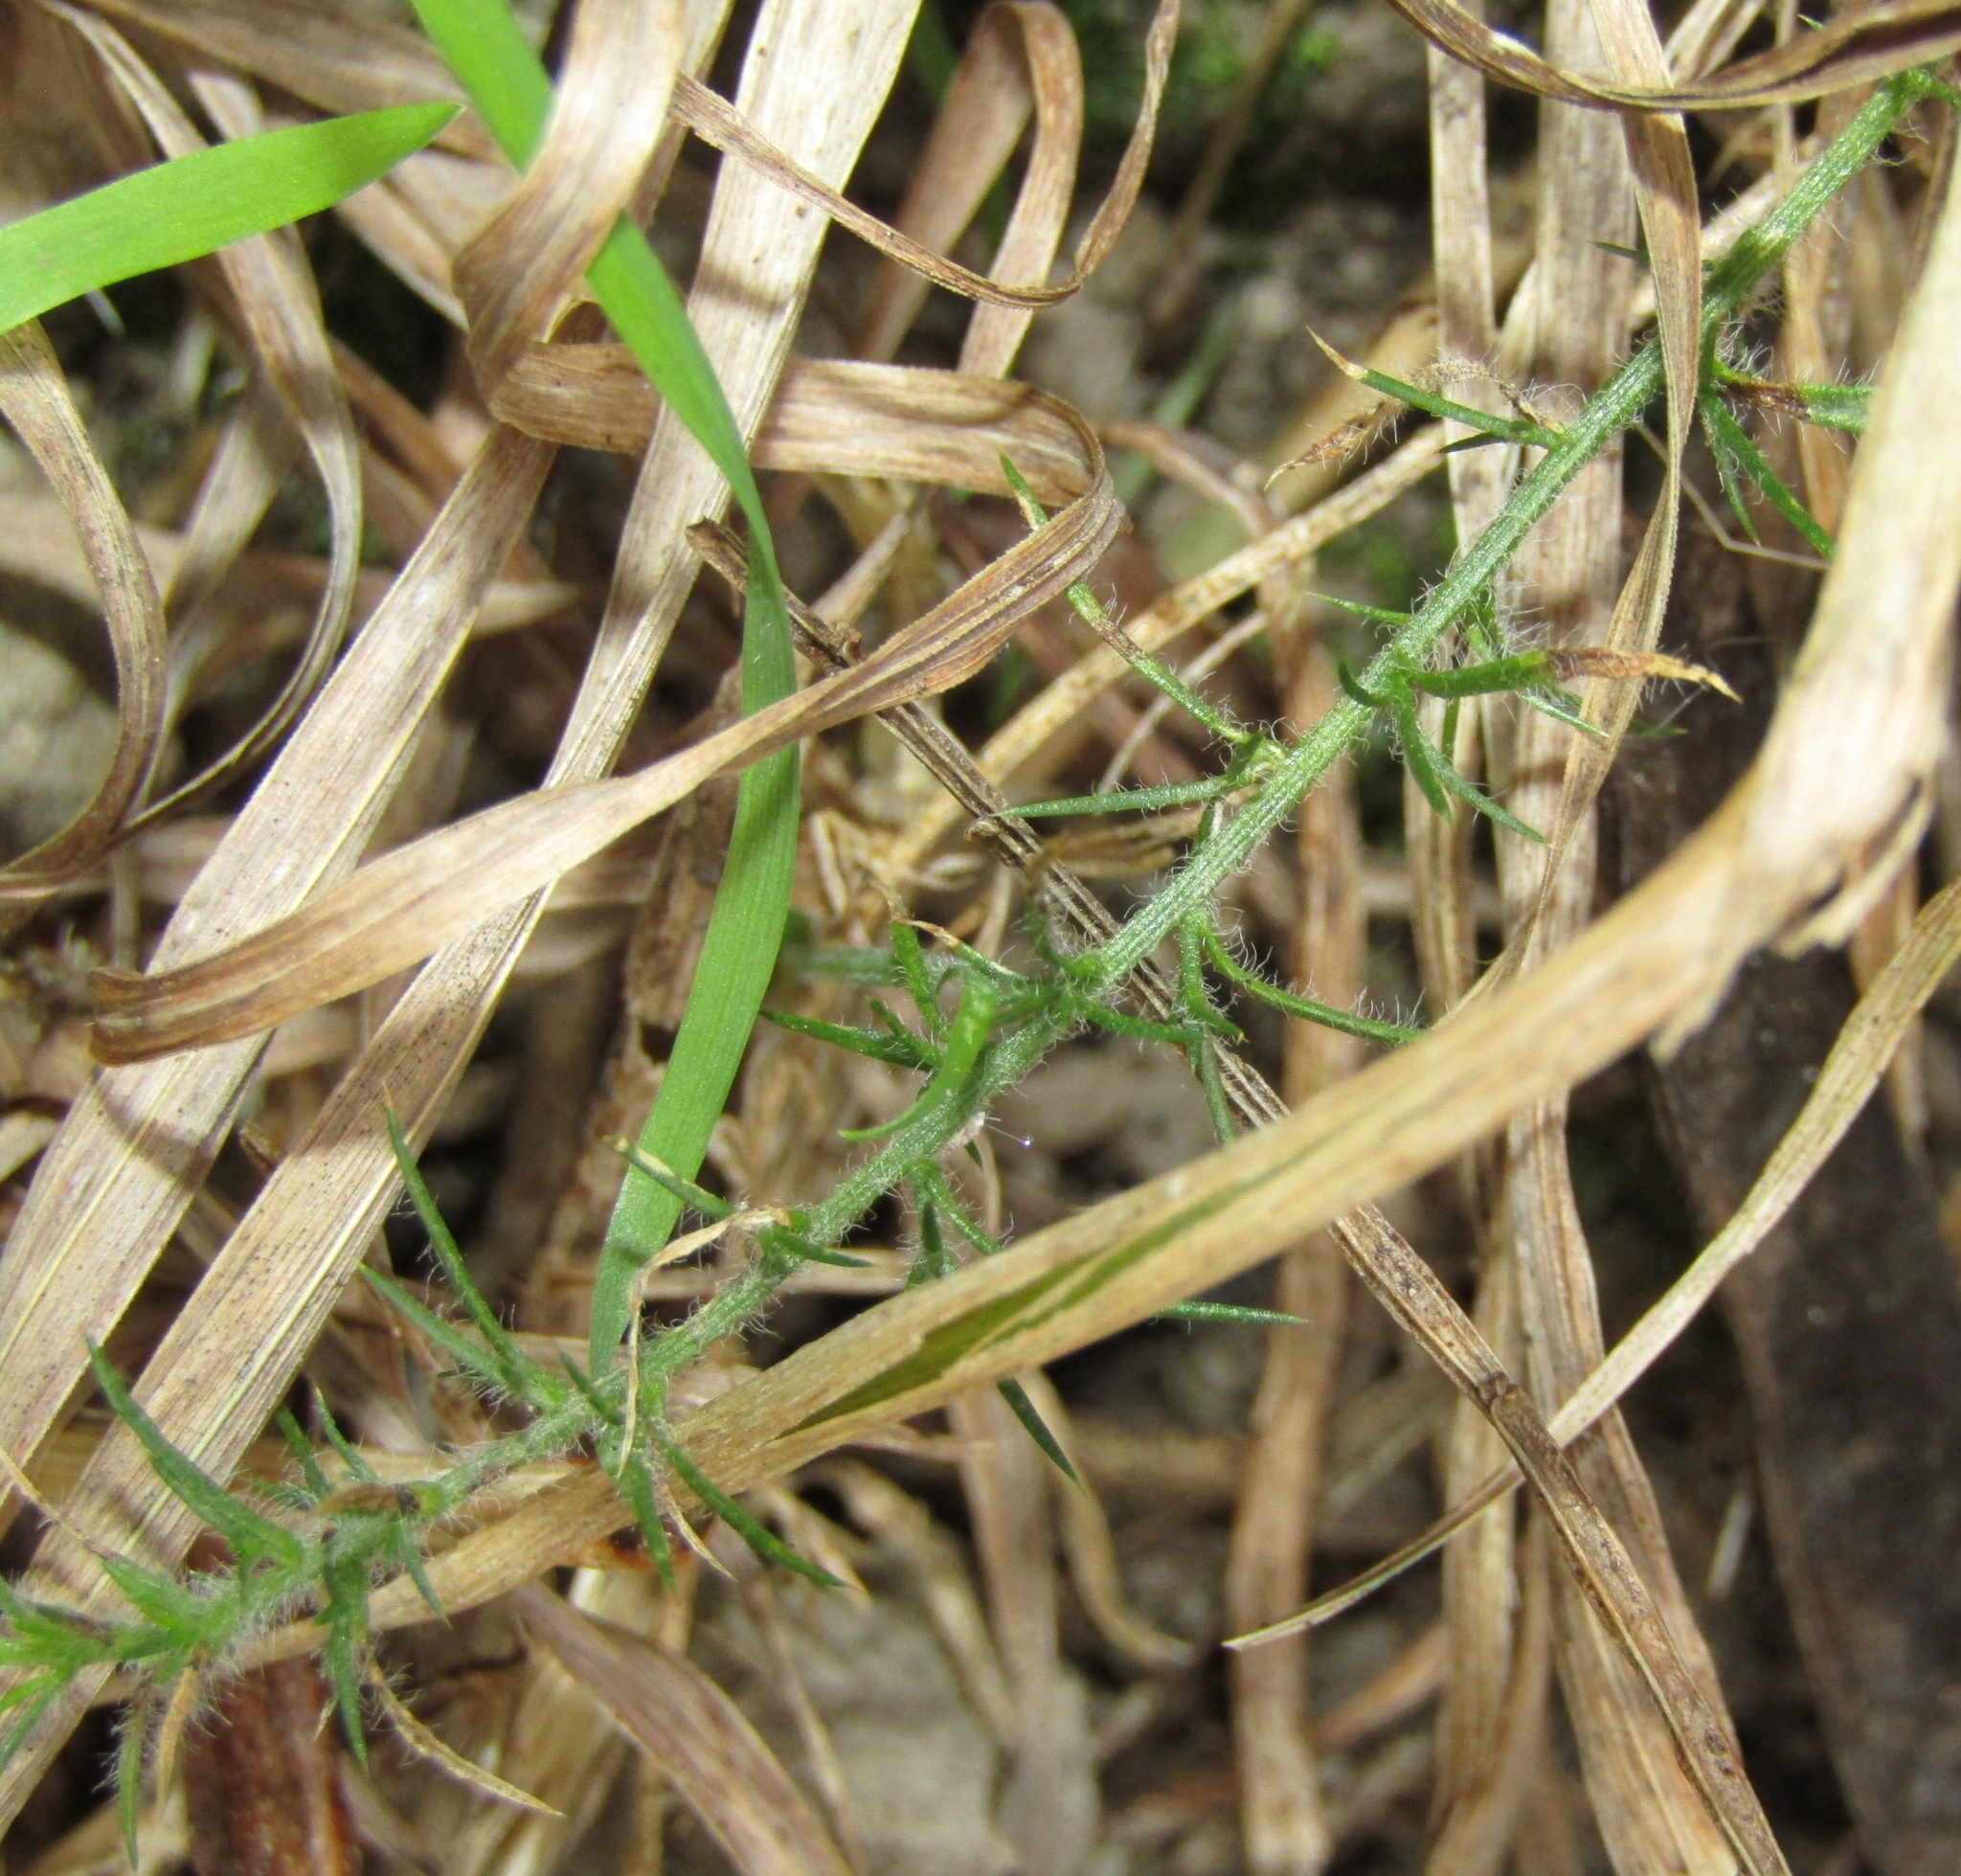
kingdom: Plantae
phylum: Tracheophyta
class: Magnoliopsida
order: Fabales
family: Fabaceae
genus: Ulex
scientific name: Ulex europaeus
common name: Common gorse
